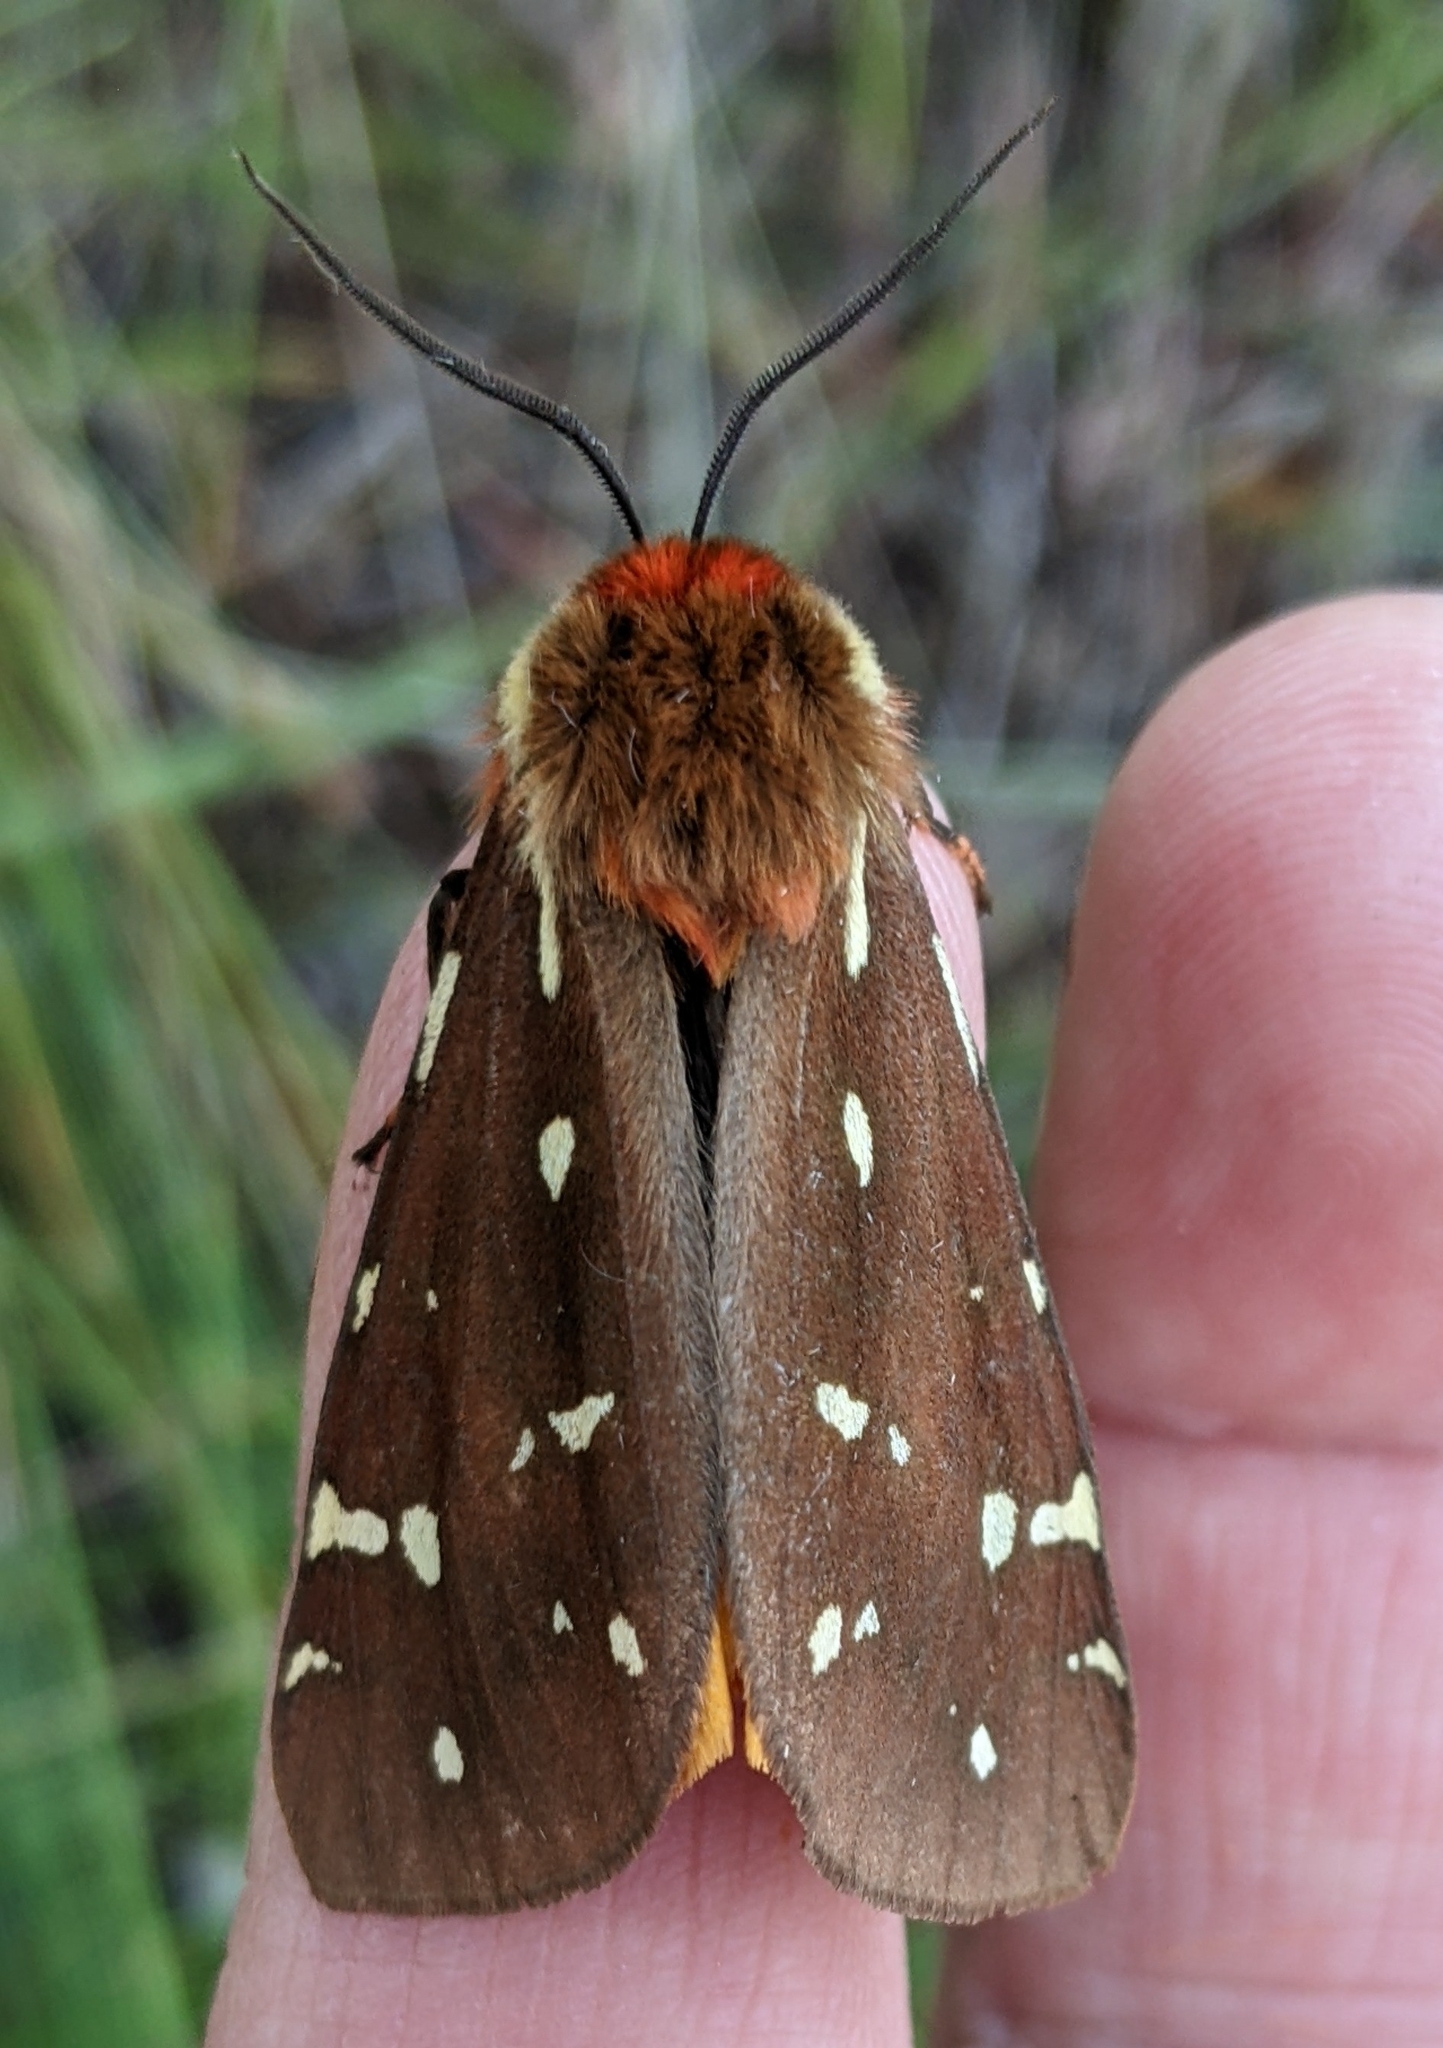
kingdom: Animalia
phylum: Arthropoda
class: Insecta
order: Lepidoptera
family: Erebidae
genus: Arctia
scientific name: Arctia parthenos
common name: St. lawrence tiger moth
